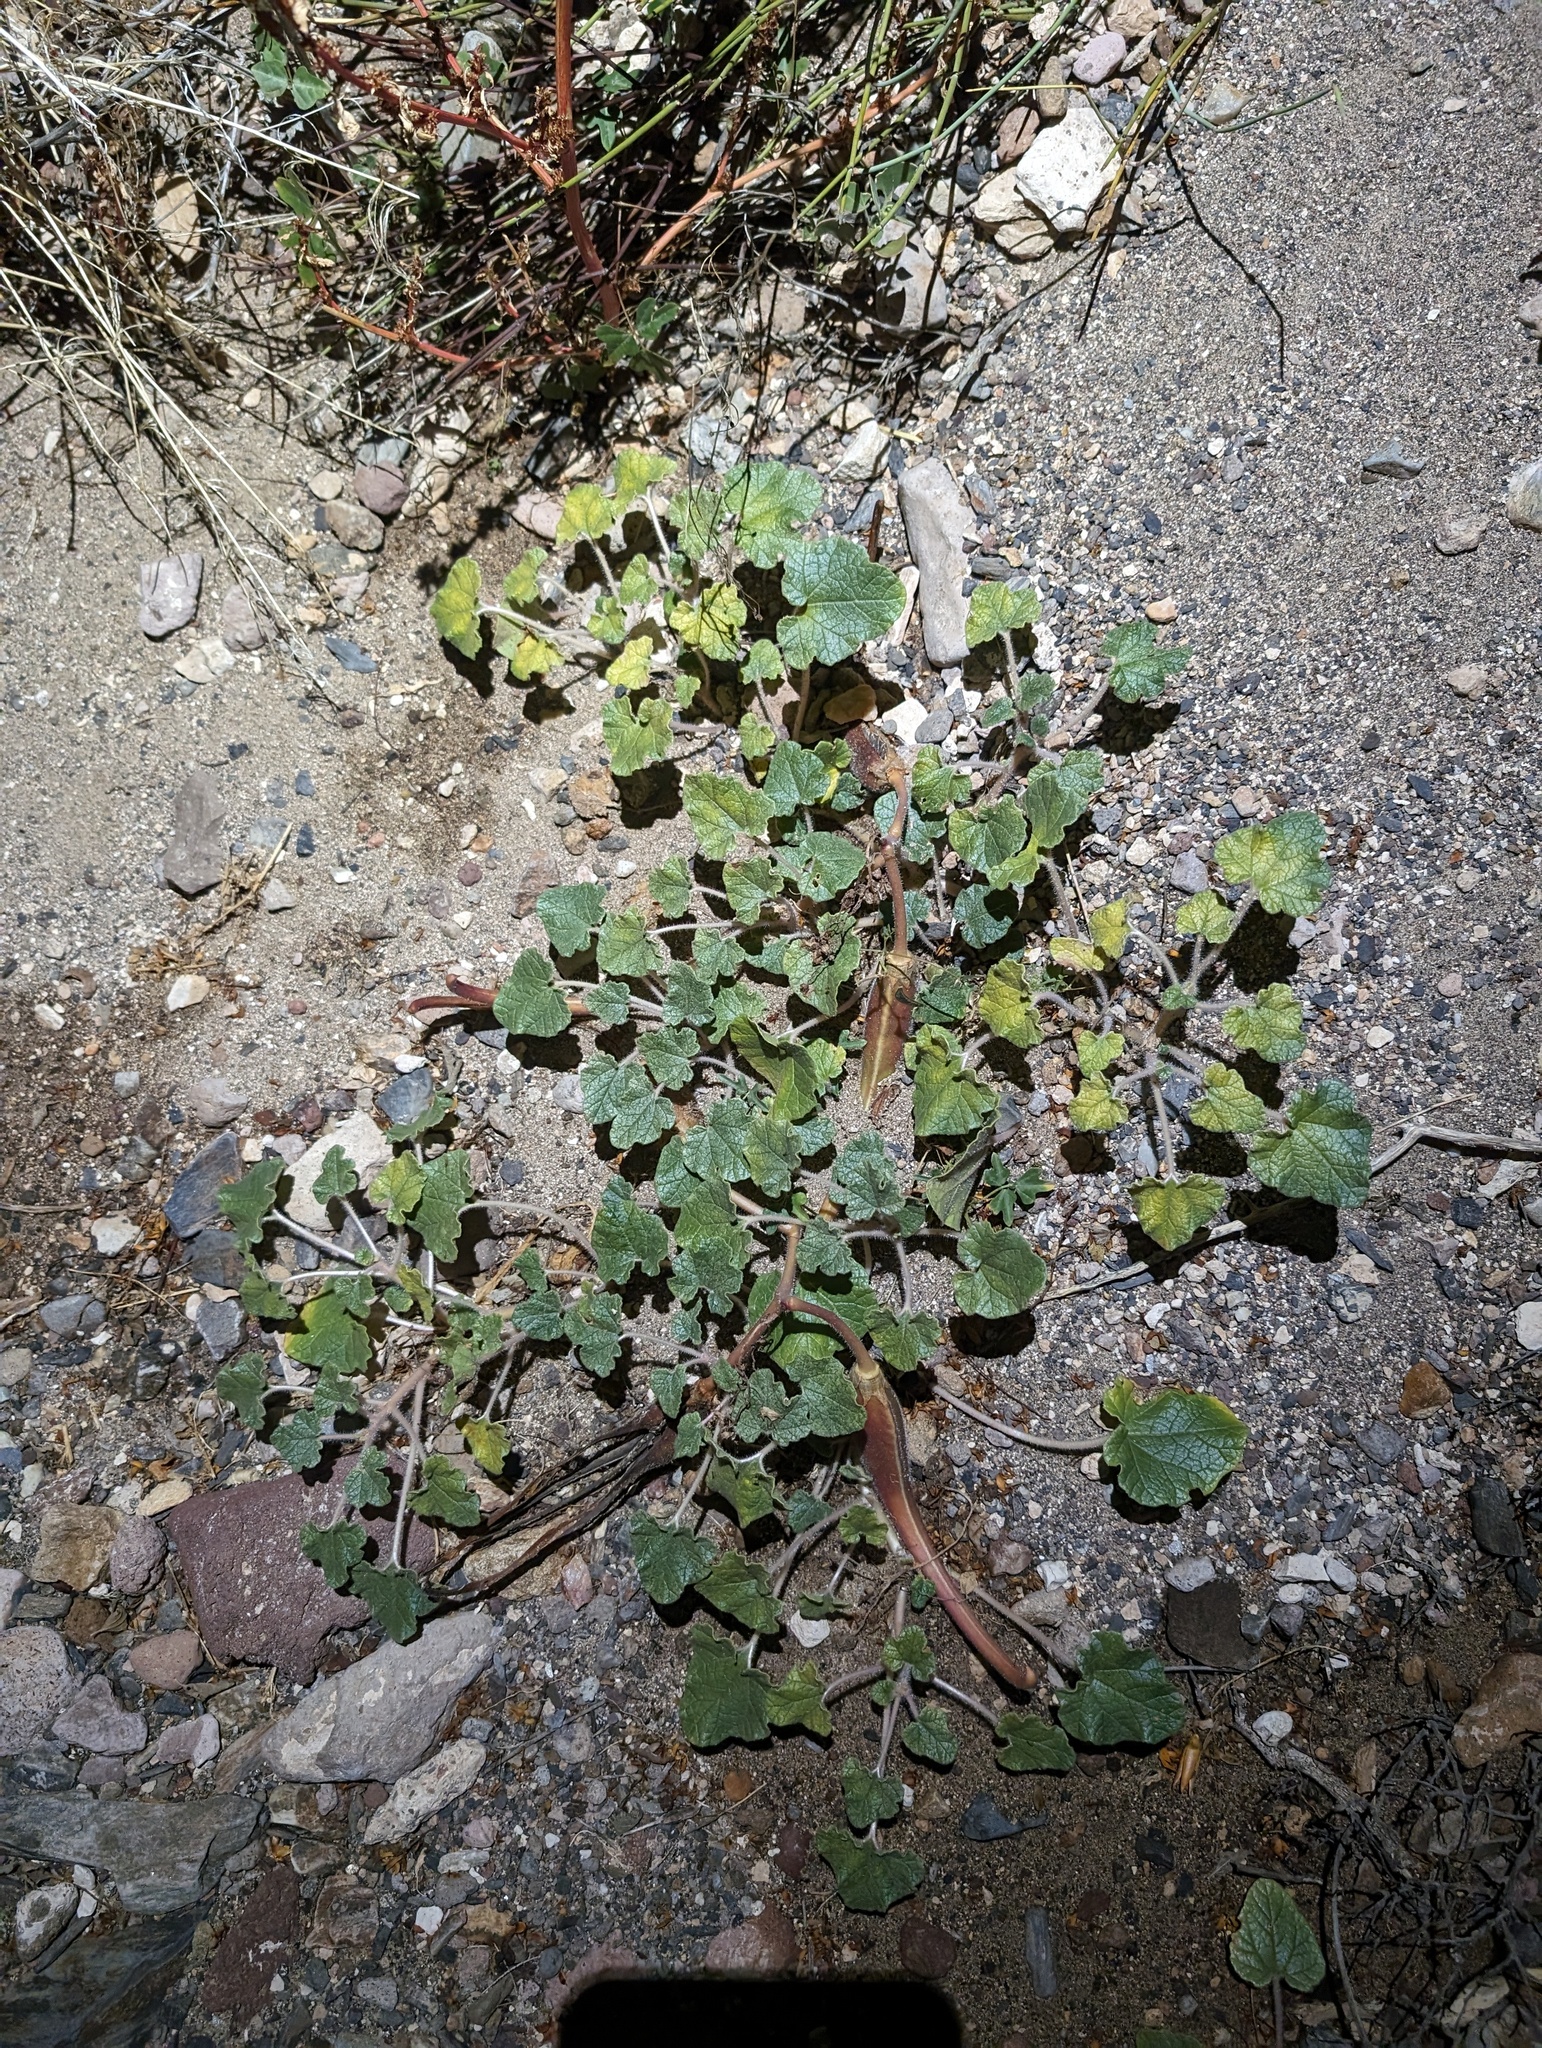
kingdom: Plantae
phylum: Tracheophyta
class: Magnoliopsida
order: Lamiales
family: Martyniaceae
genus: Proboscidea
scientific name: Proboscidea althaeifolia
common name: Desert unicorn-plant
